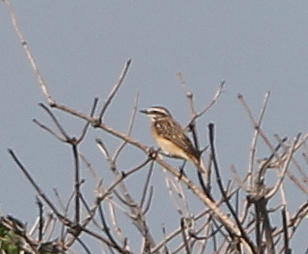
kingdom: Animalia
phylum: Chordata
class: Aves
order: Passeriformes
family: Muscicapidae
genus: Saxicola
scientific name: Saxicola rubetra
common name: Whinchat
